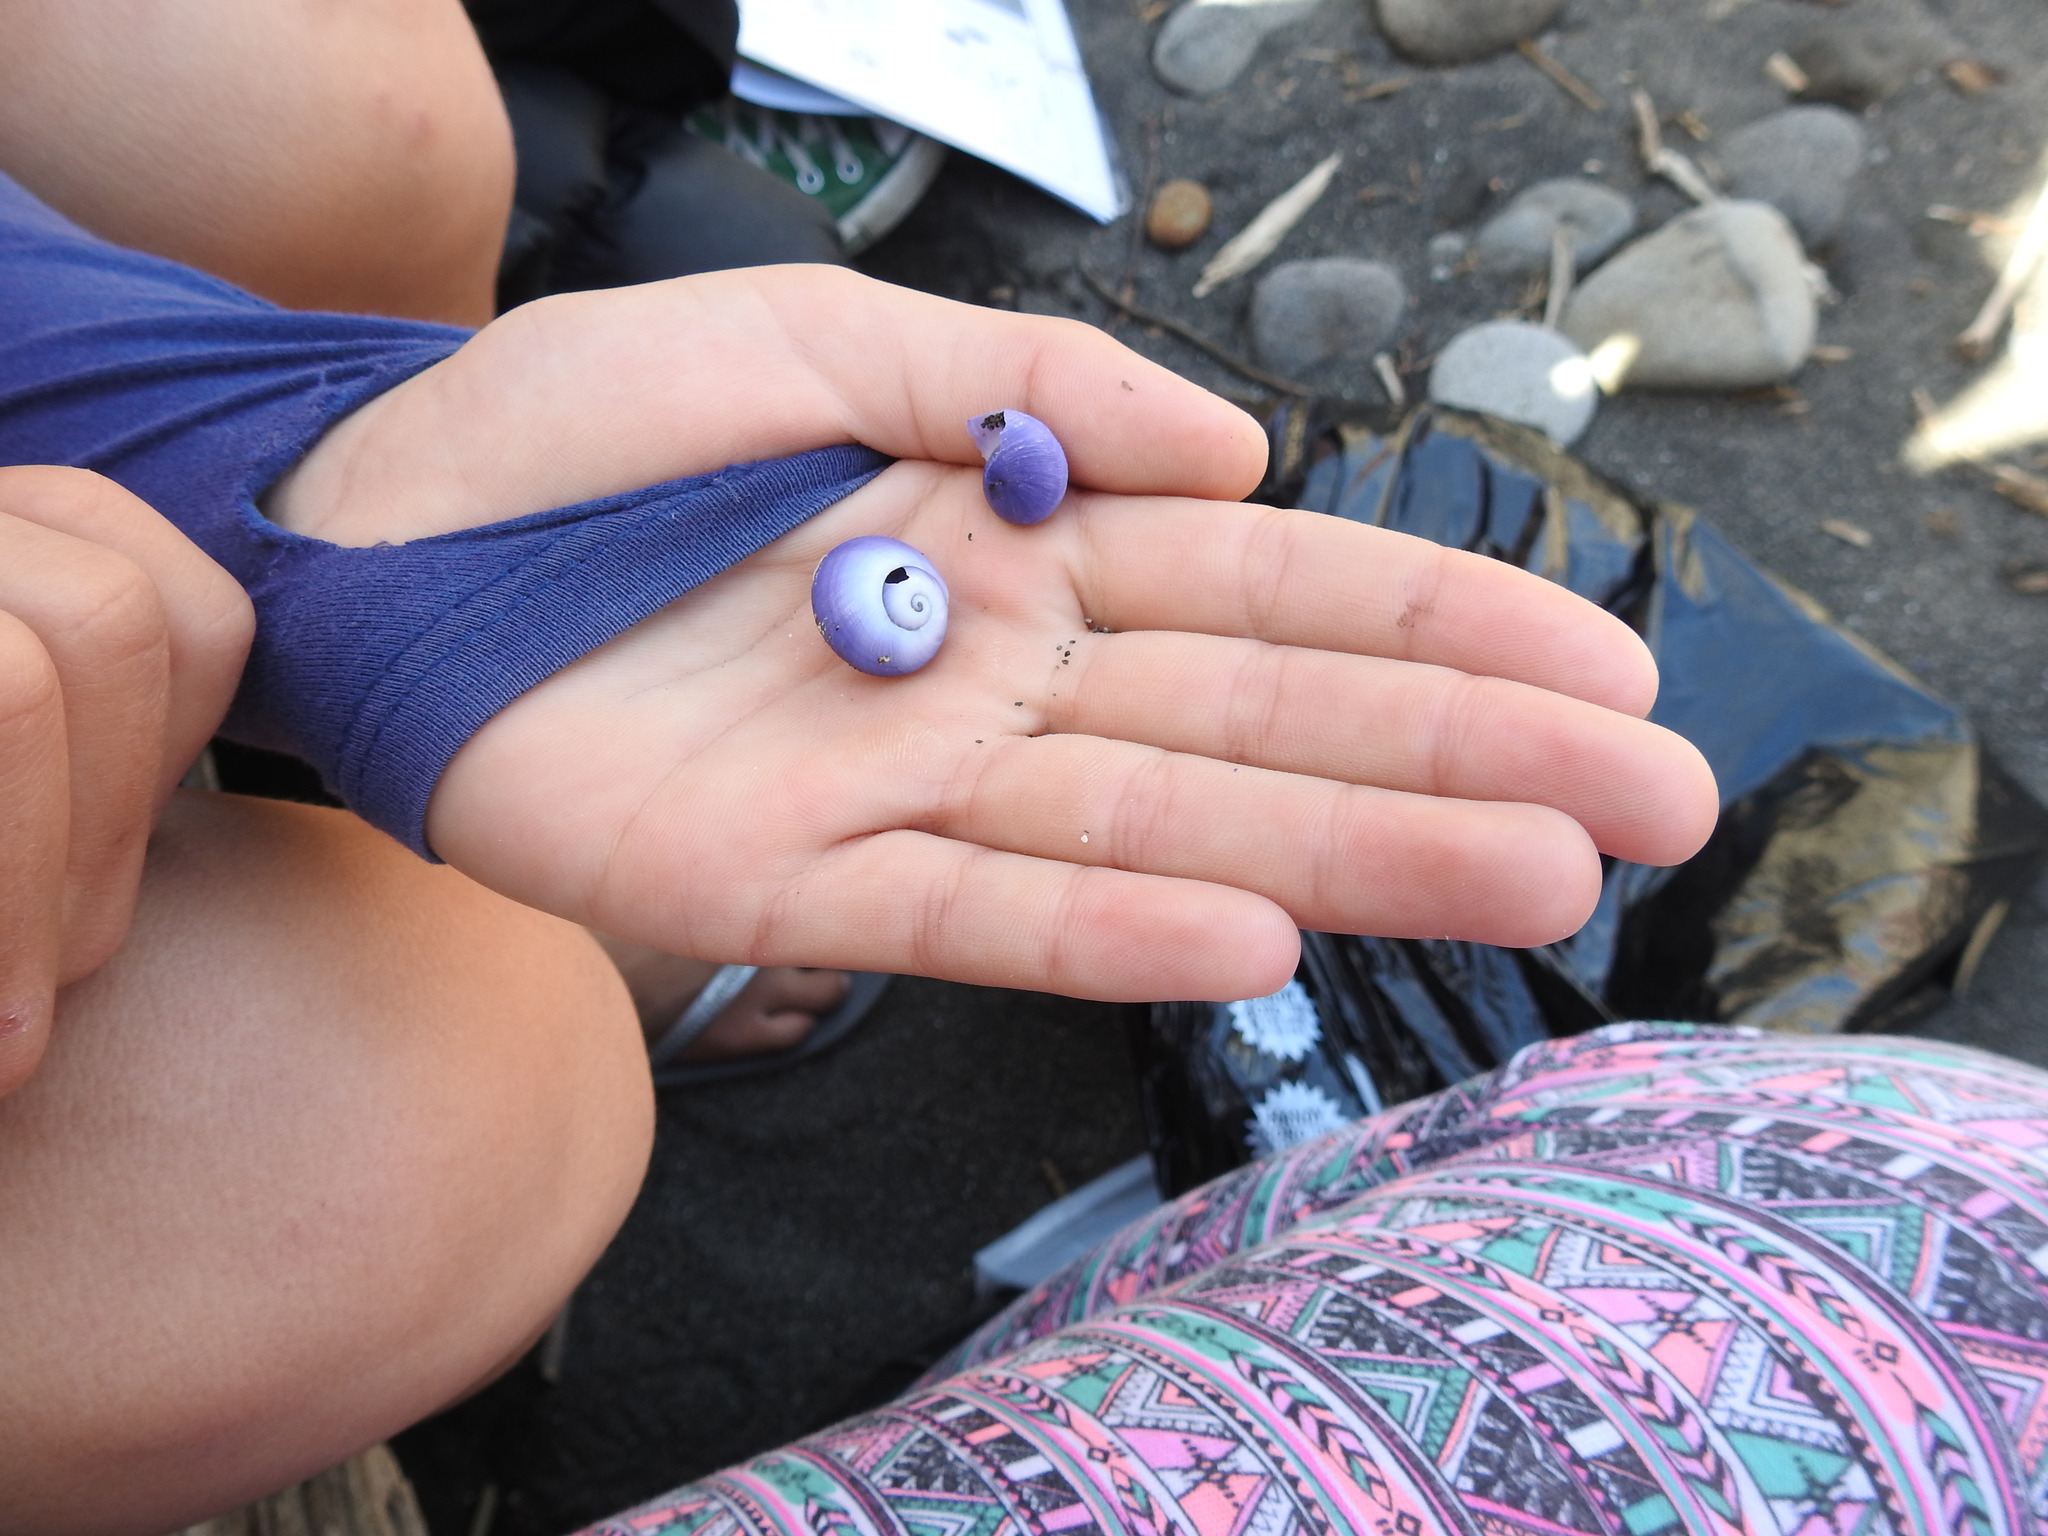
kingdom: Animalia
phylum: Mollusca
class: Gastropoda
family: Epitoniidae
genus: Janthina
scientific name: Janthina janthina
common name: Common janthina
